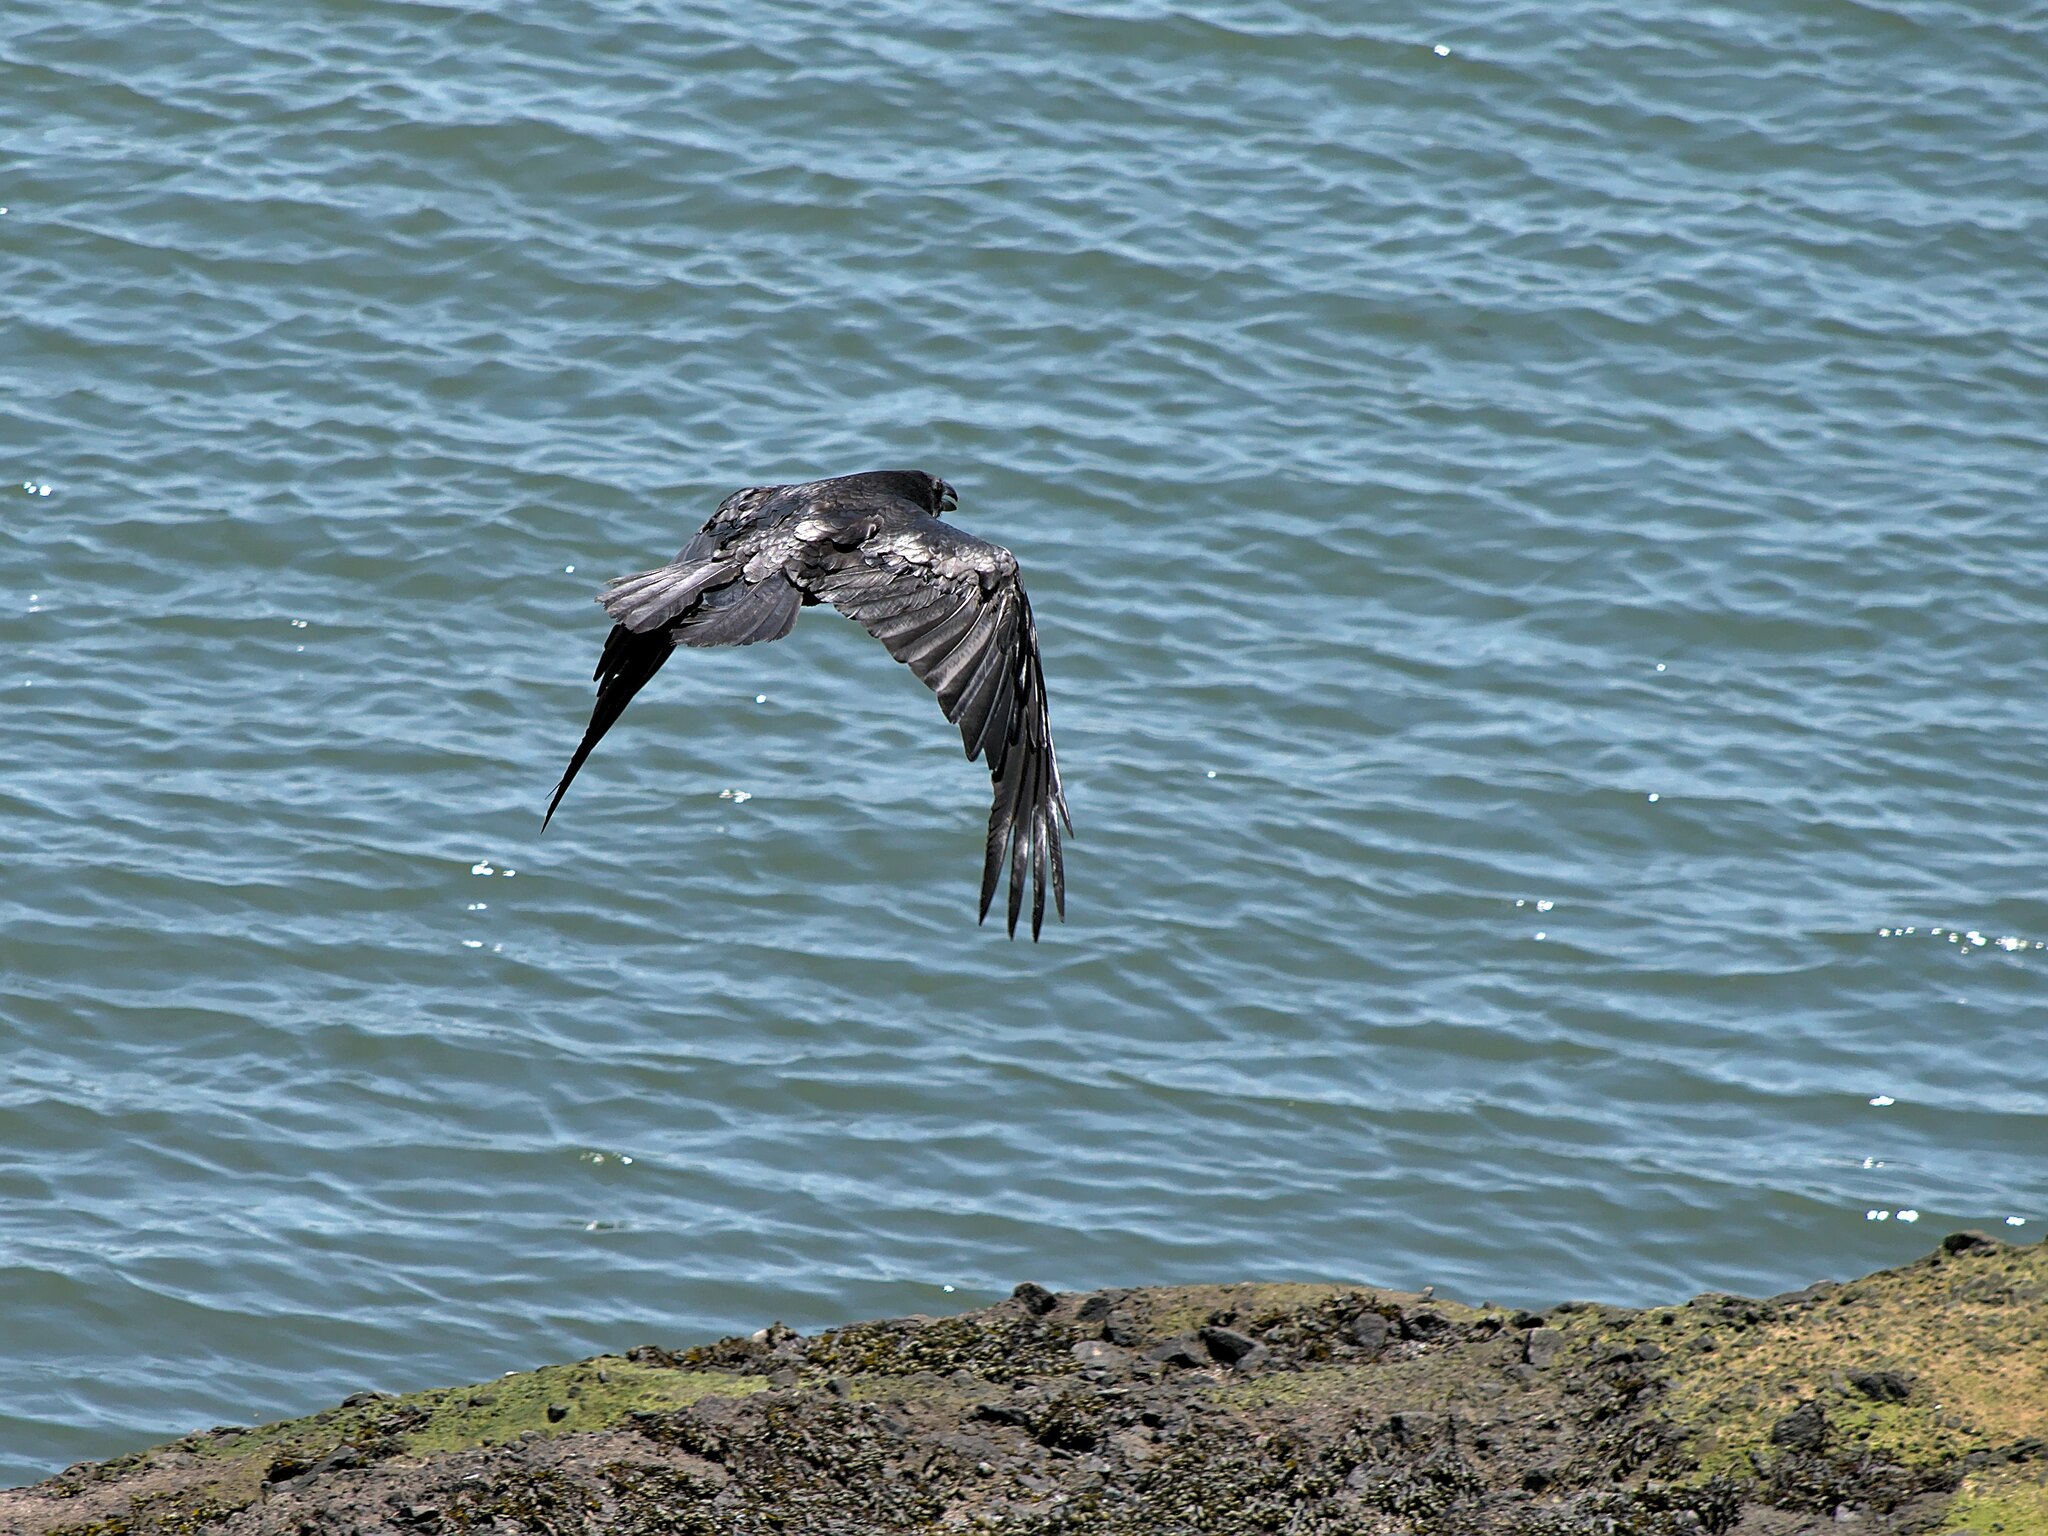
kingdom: Animalia
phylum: Chordata
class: Aves
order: Passeriformes
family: Corvidae
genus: Corvus
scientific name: Corvus corax
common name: Common raven
